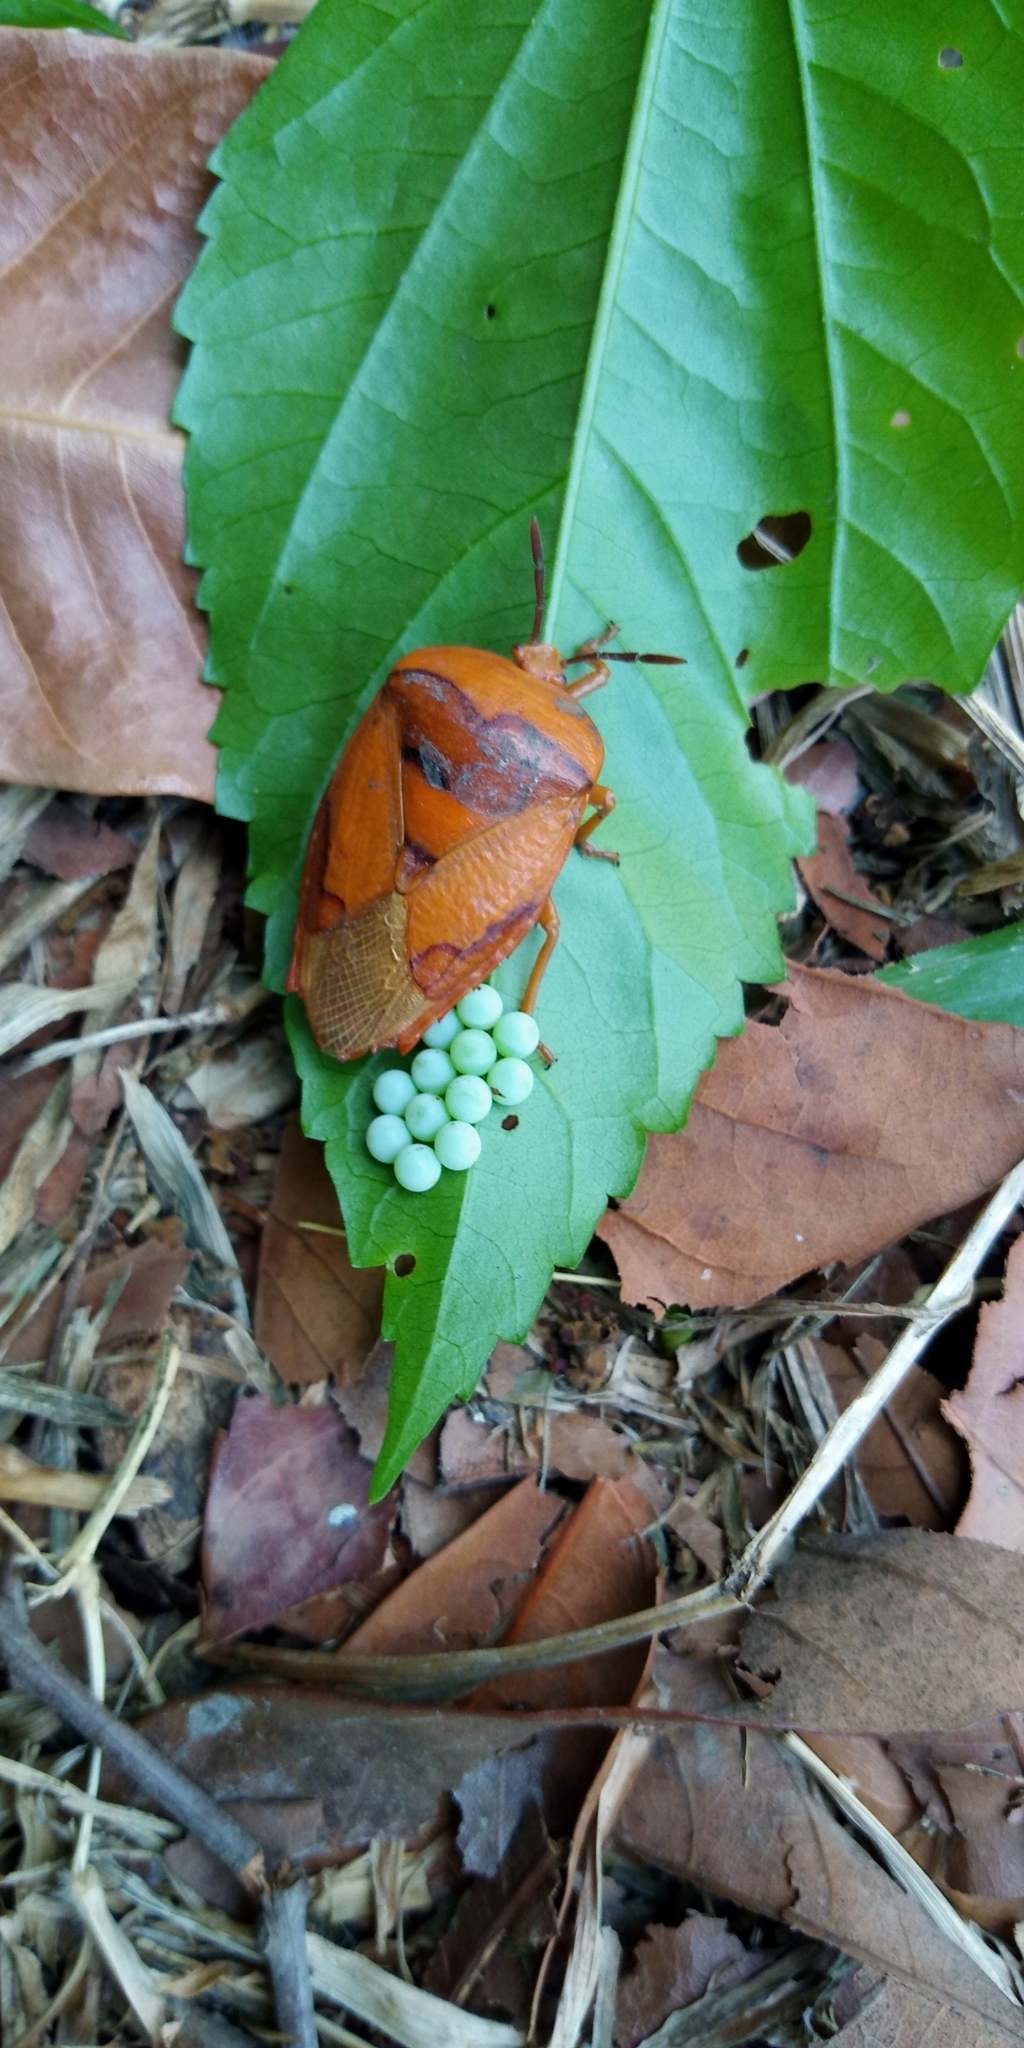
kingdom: Animalia
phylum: Arthropoda
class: Insecta
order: Hemiptera
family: Tessaratomidae
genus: Tessaratoma
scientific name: Tessaratoma papillosa
